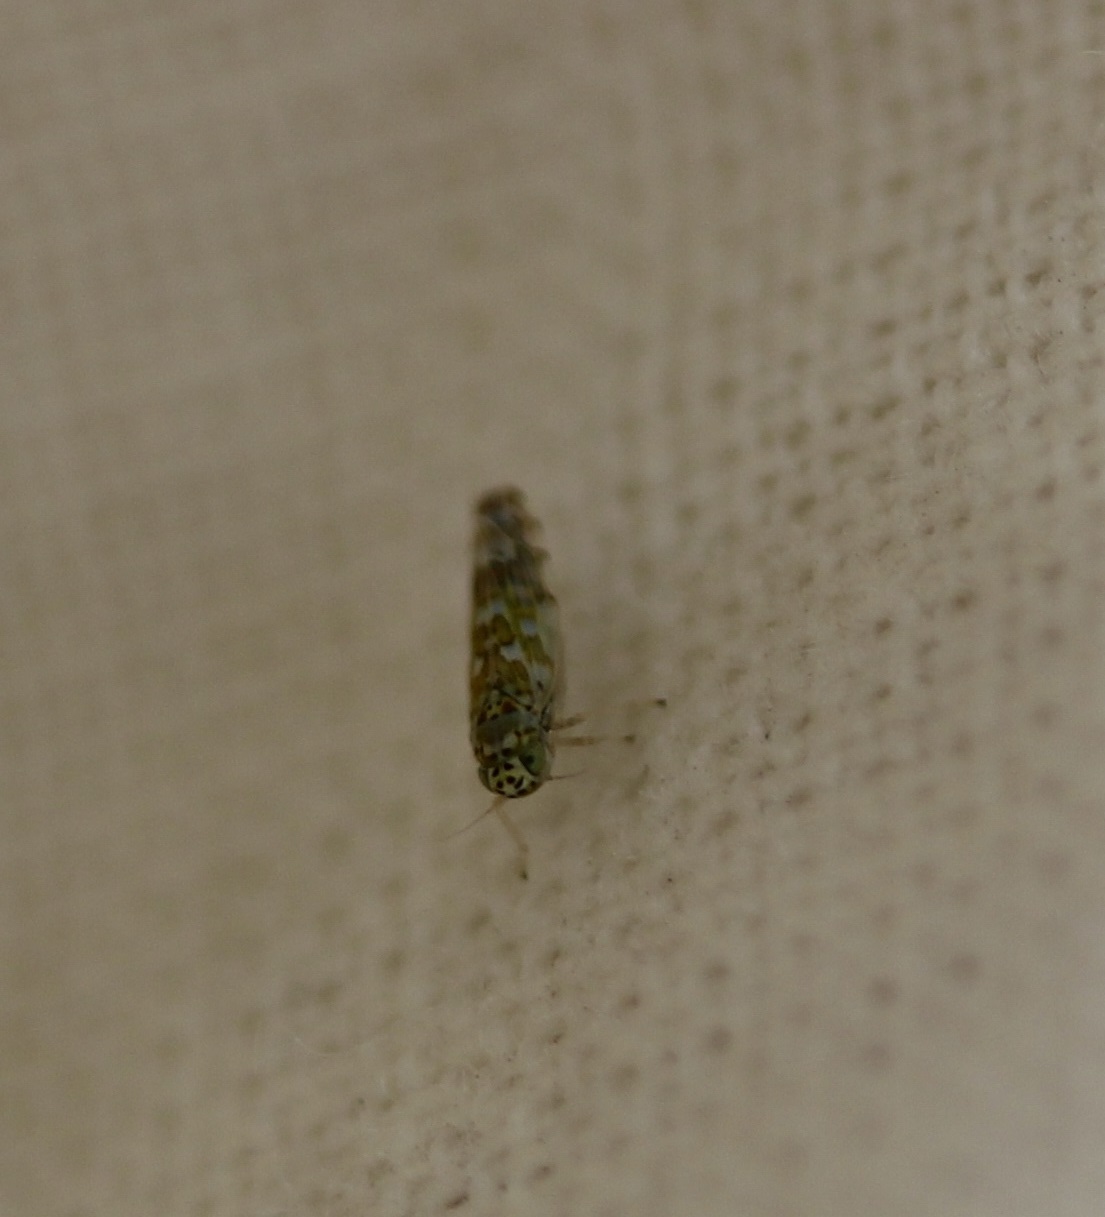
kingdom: Animalia
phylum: Arthropoda
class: Insecta
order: Hemiptera
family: Cicadellidae
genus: Eupteryx
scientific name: Eupteryx decemnotata
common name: Ligurian leafhopper
